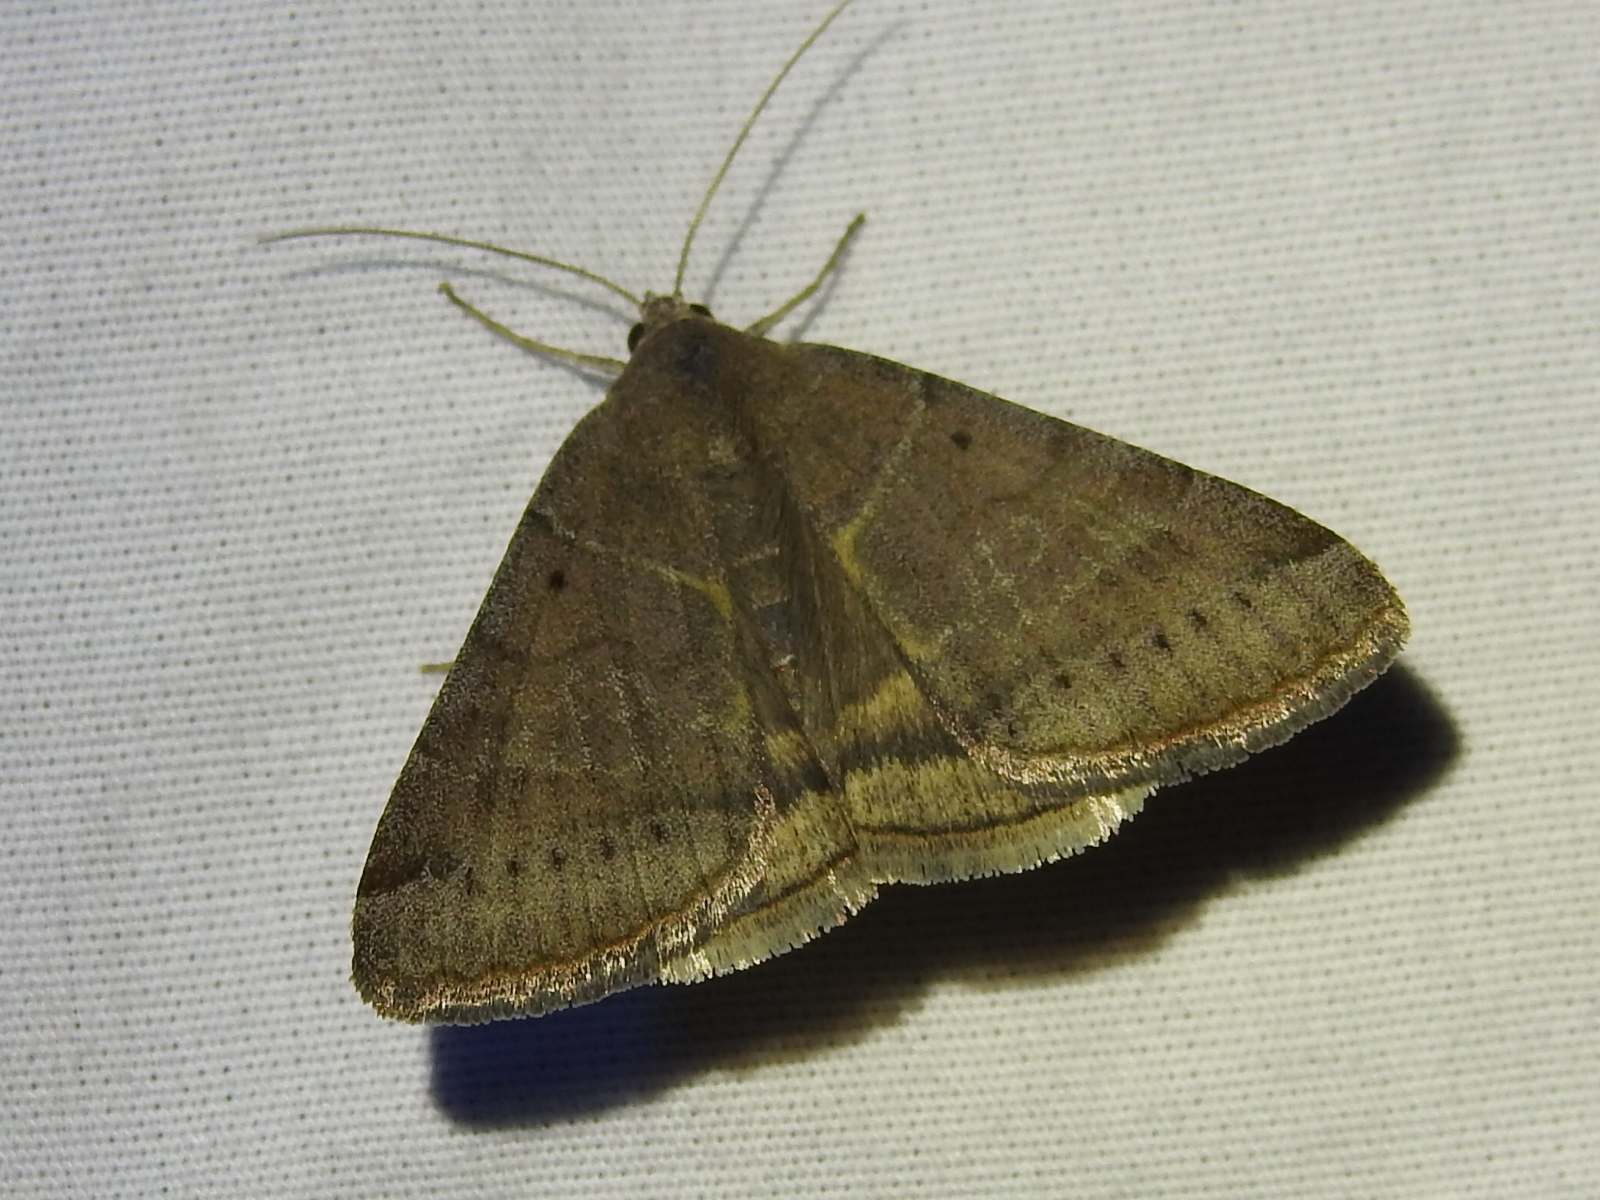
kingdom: Animalia
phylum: Arthropoda
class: Insecta
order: Lepidoptera
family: Erebidae
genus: Caenurgina
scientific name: Caenurgina erechtea
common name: Forage looper moth
